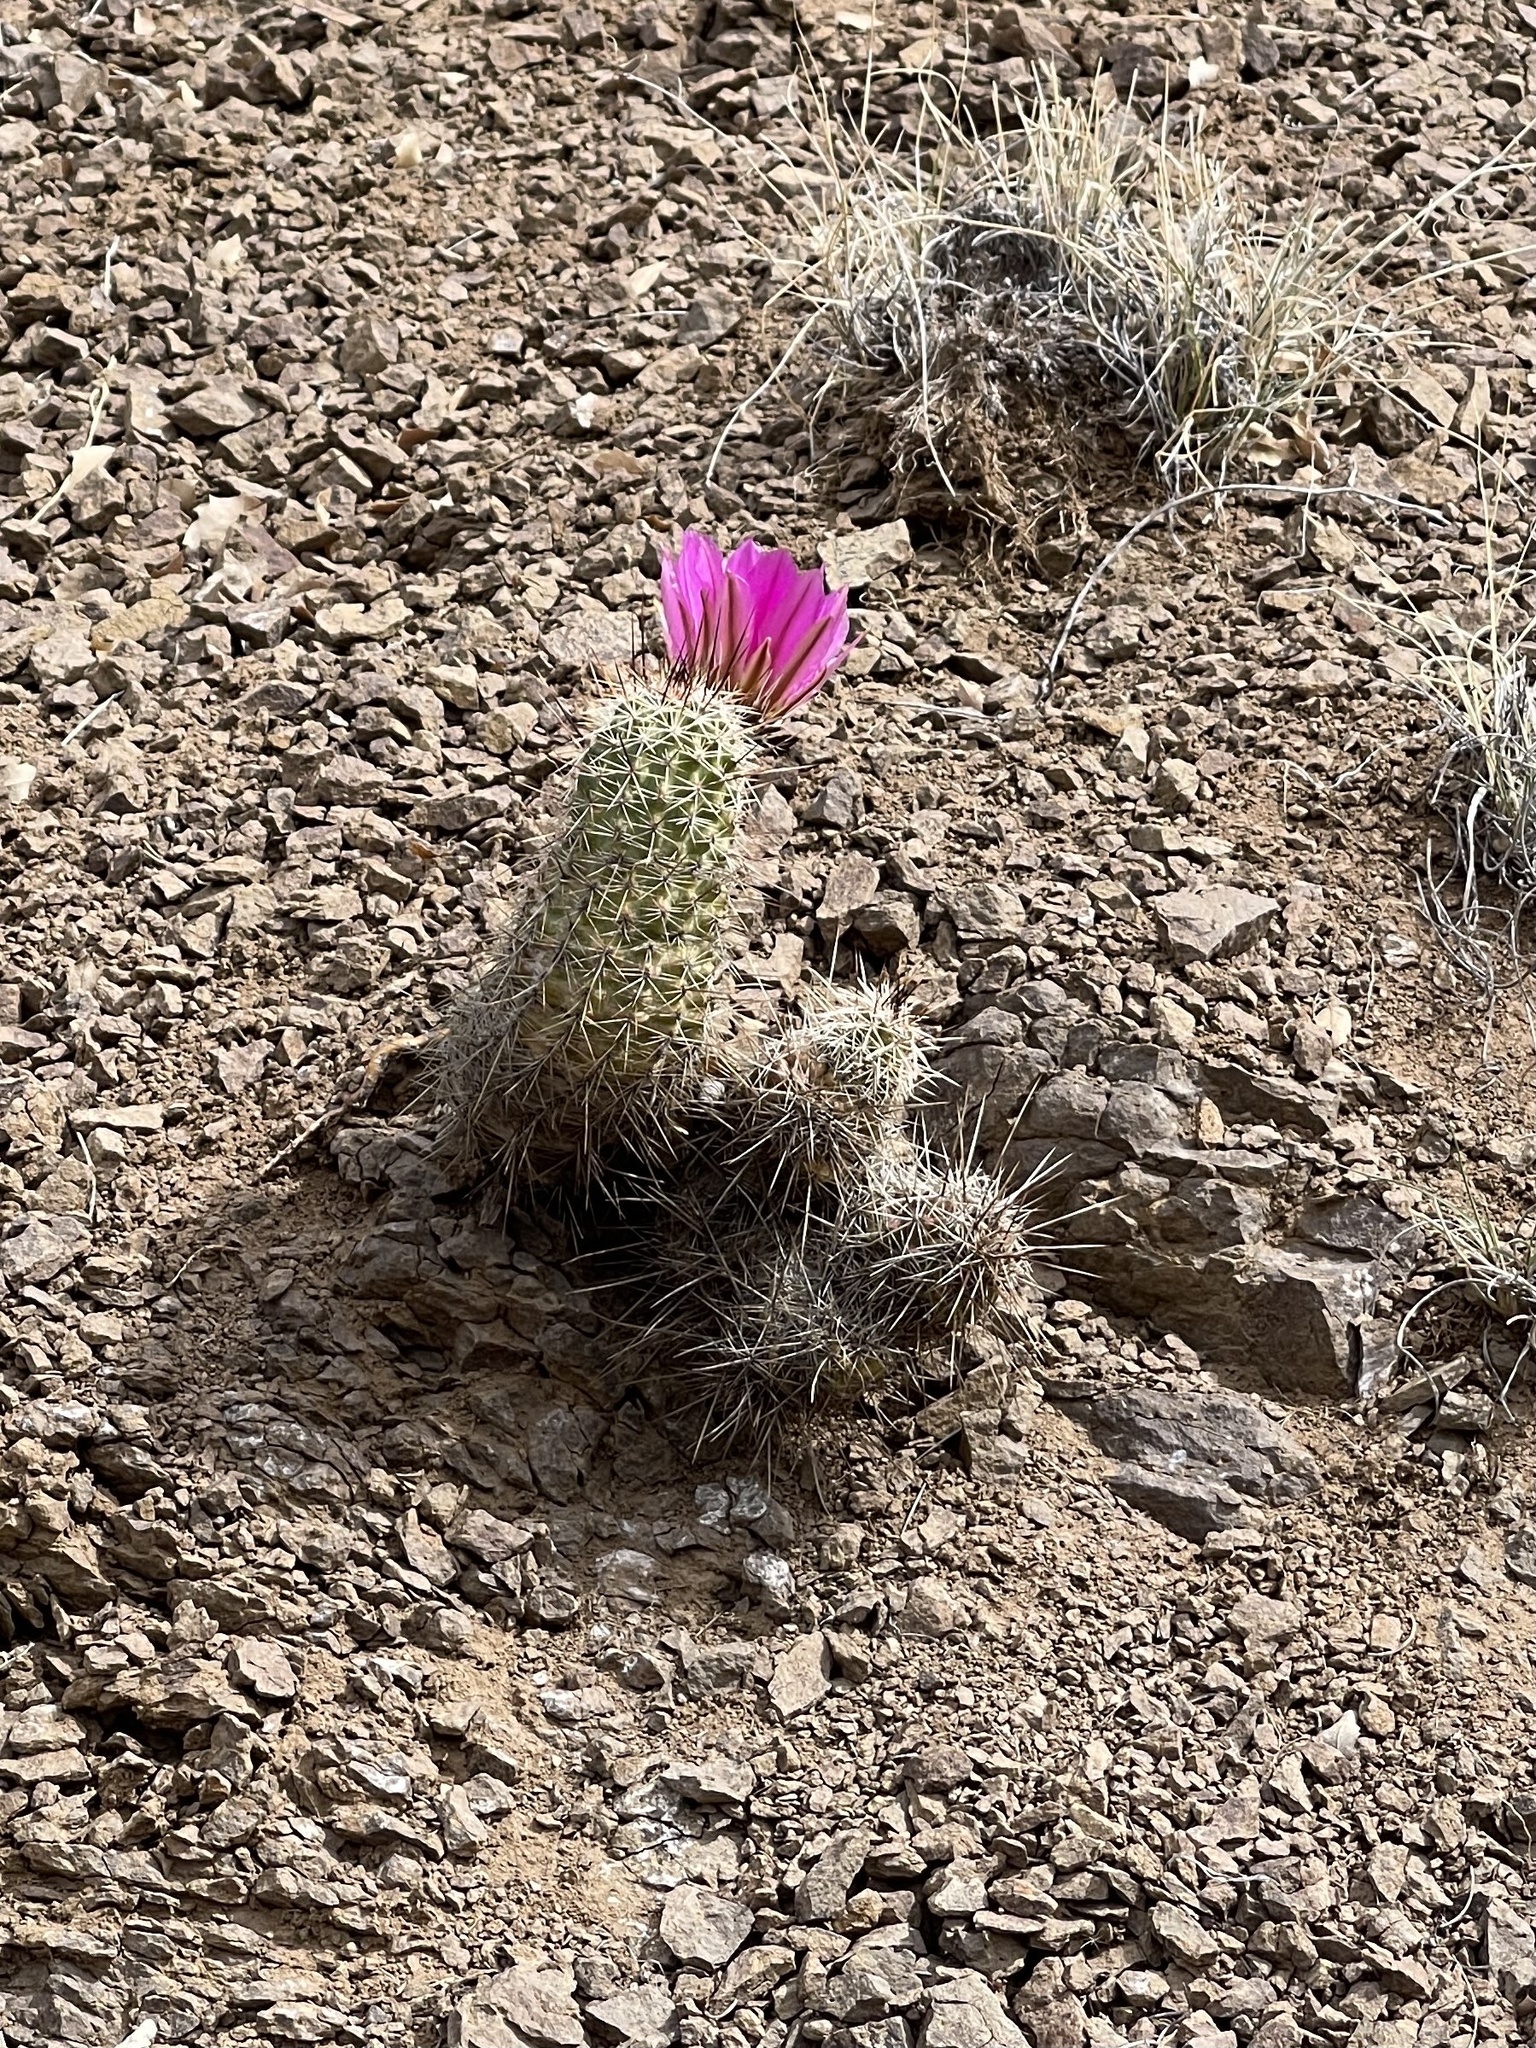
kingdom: Plantae
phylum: Tracheophyta
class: Magnoliopsida
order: Caryophyllales
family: Cactaceae
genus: Echinocereus
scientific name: Echinocereus fasciculatus
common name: Bundle hedgehog
